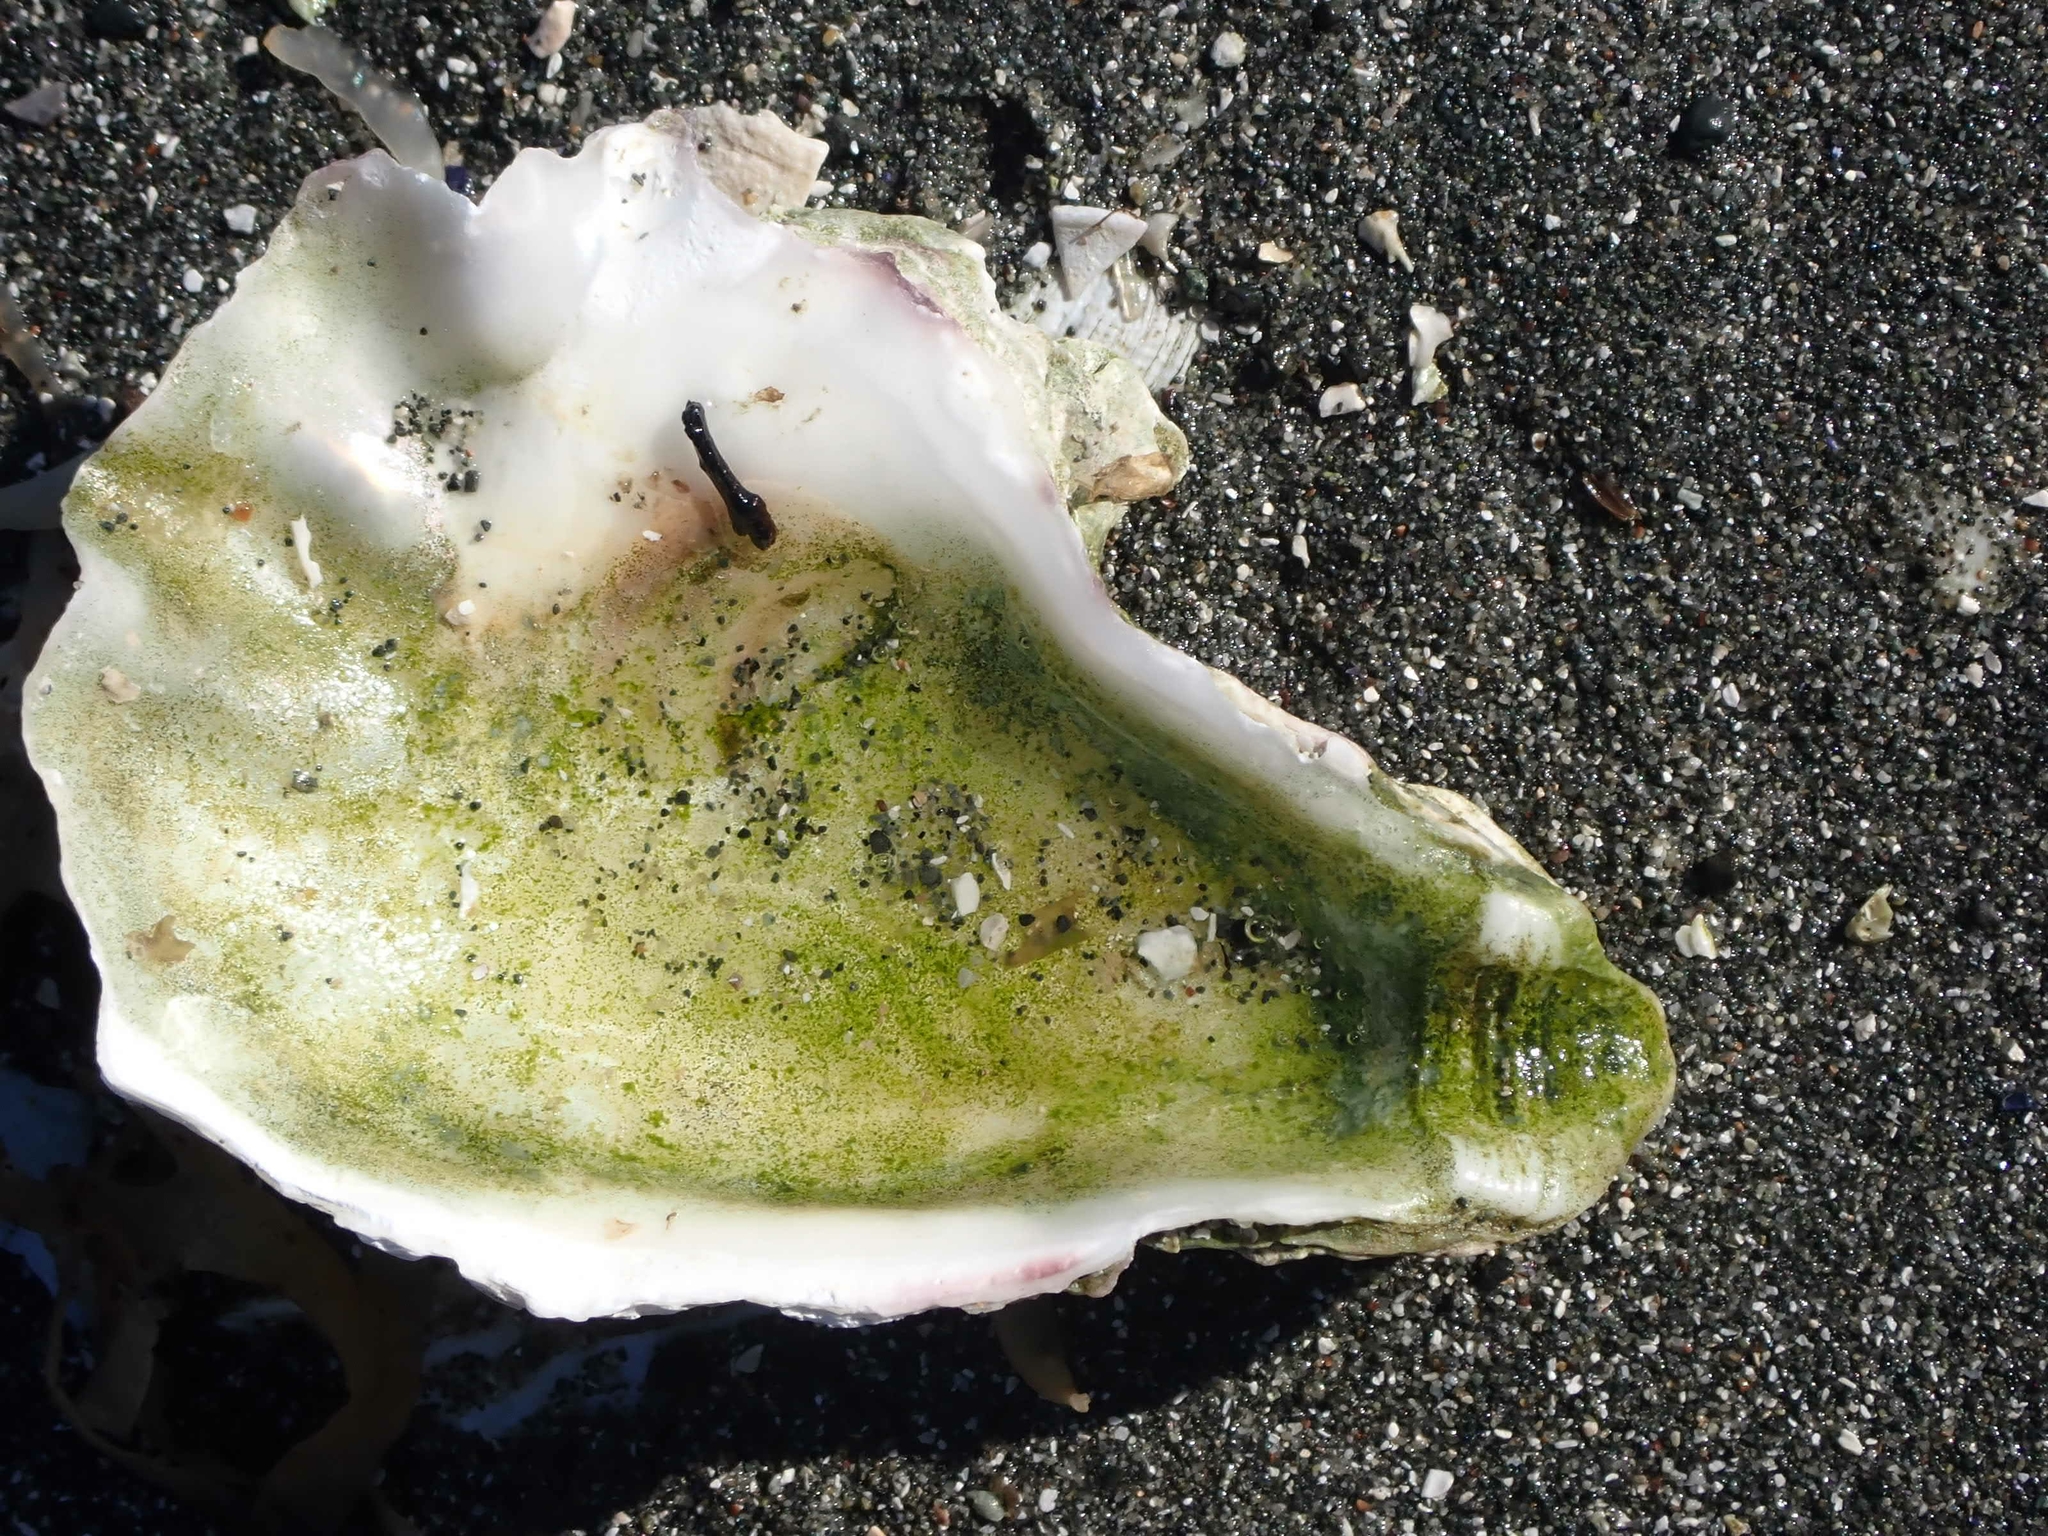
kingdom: Animalia
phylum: Mollusca
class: Bivalvia
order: Ostreida
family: Ostreidae
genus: Magallana
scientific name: Magallana gigas
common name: Pacific oyster
